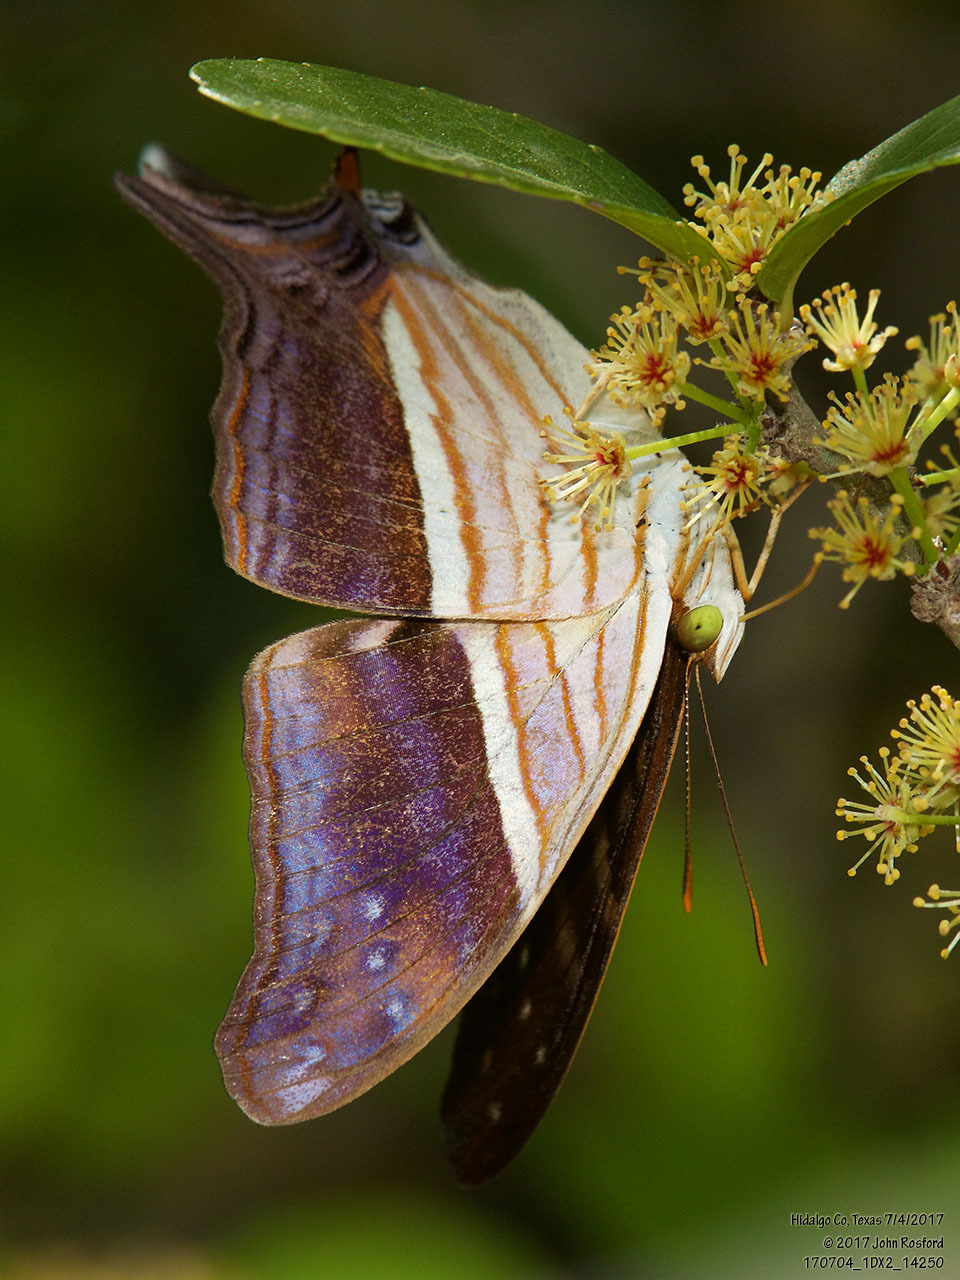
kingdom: Animalia
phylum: Arthropoda
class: Insecta
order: Lepidoptera
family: Nymphalidae
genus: Marpesia
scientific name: Marpesia chiron
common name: Many-banded daggerwing
